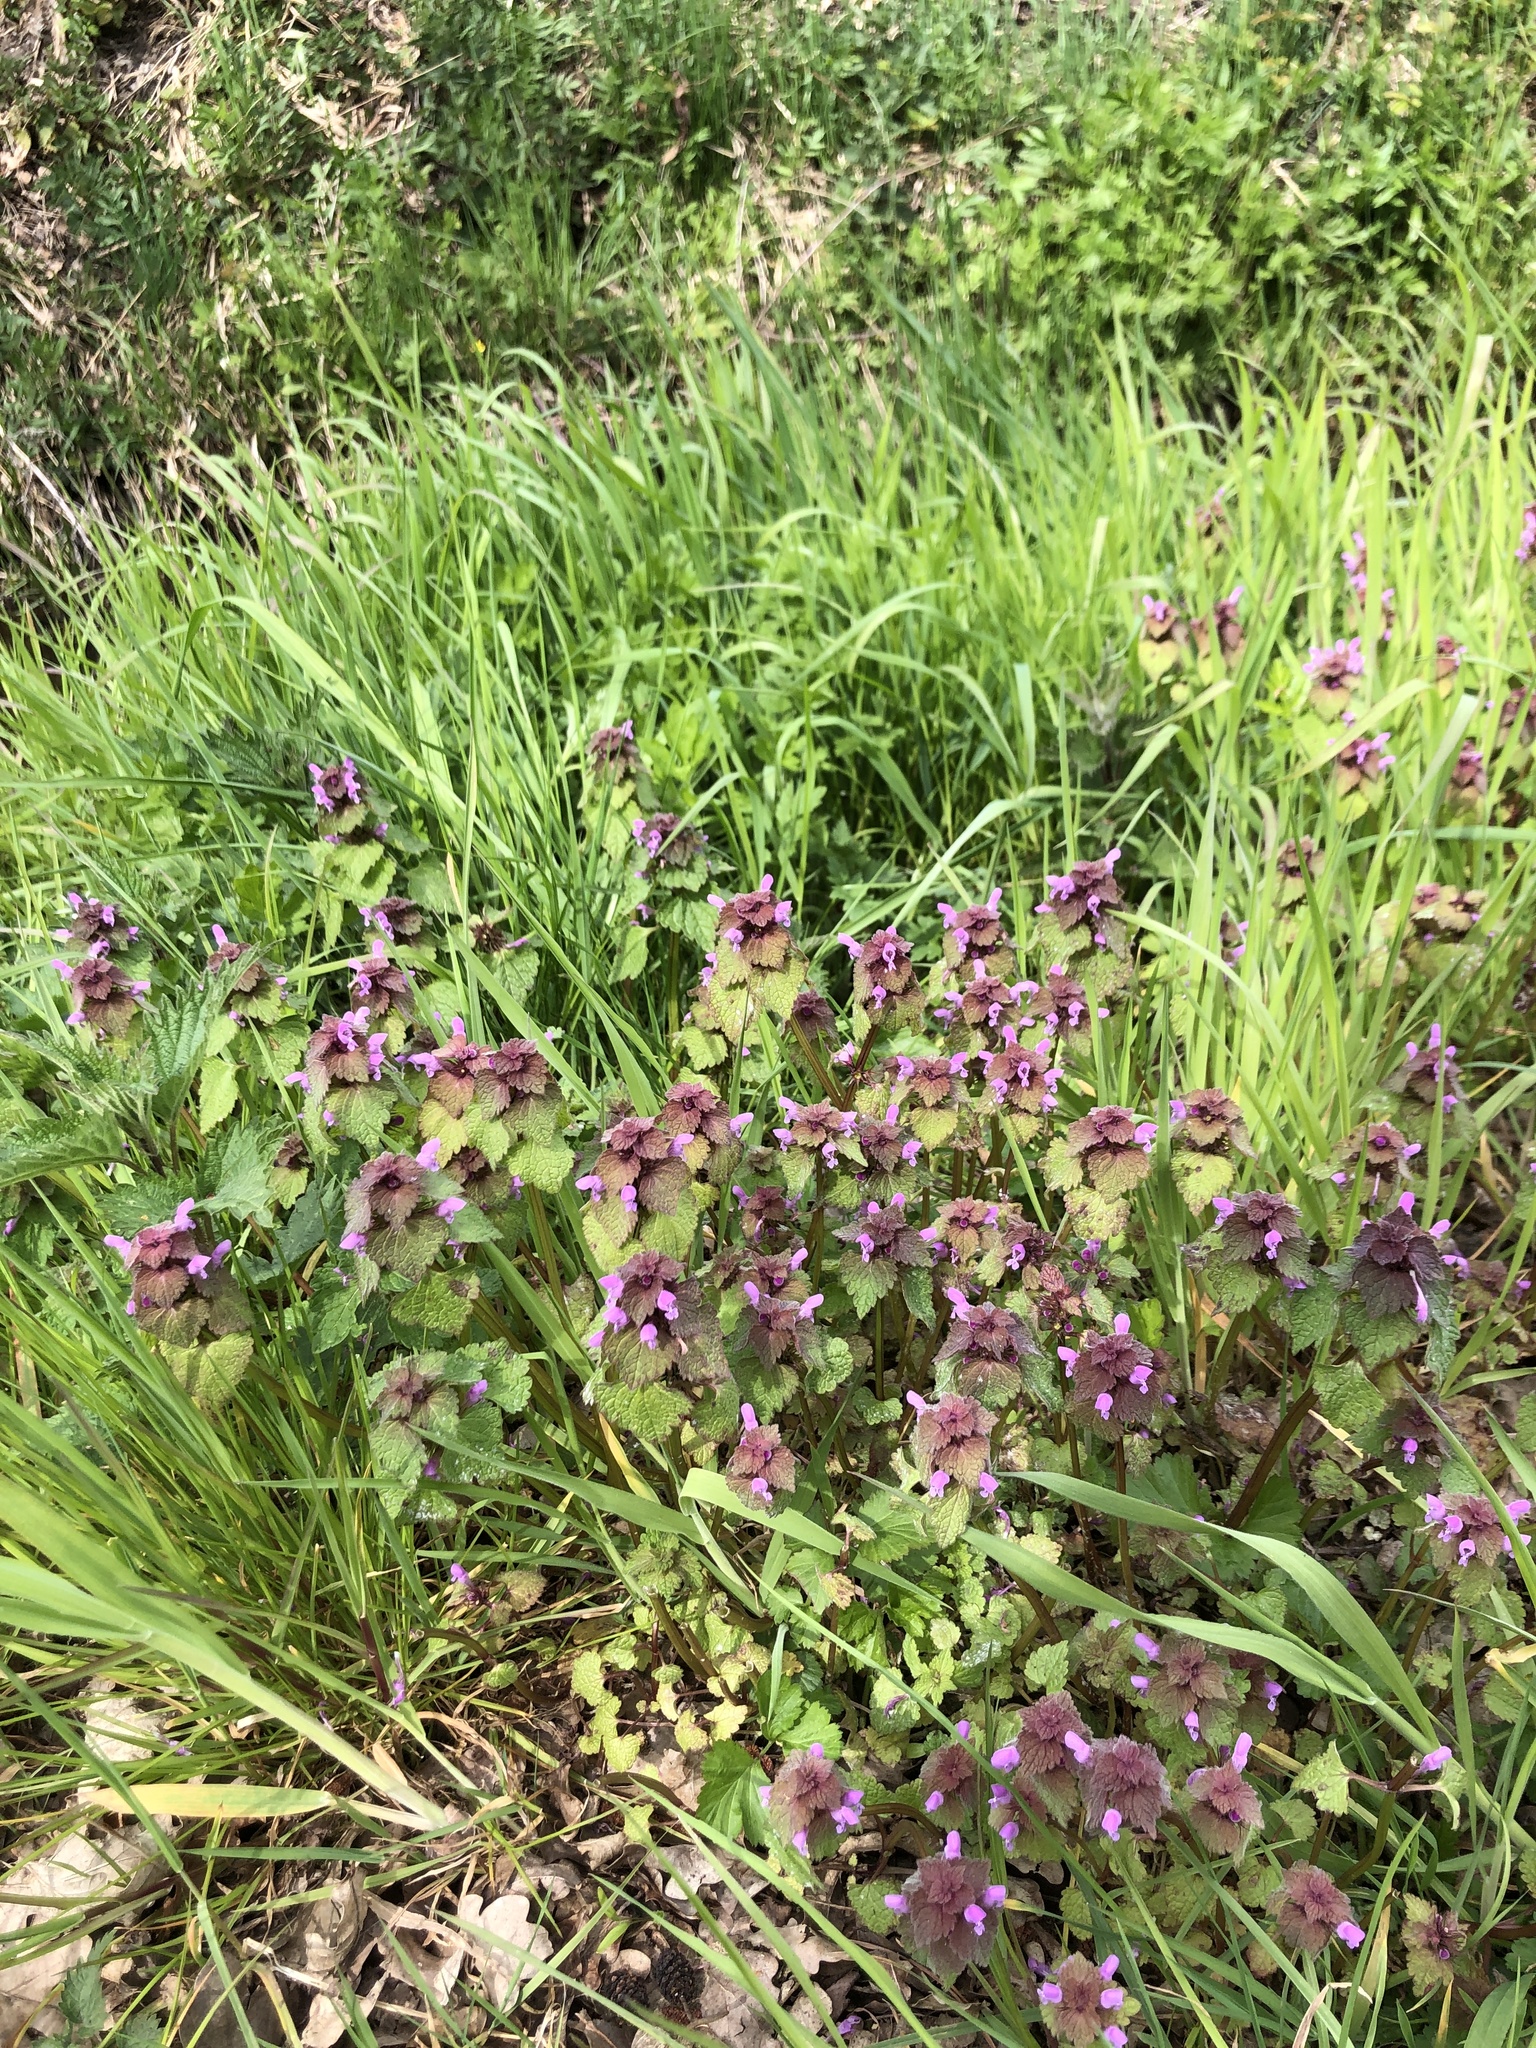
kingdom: Plantae
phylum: Tracheophyta
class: Magnoliopsida
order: Lamiales
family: Lamiaceae
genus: Lamium
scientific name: Lamium purpureum
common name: Red dead-nettle
